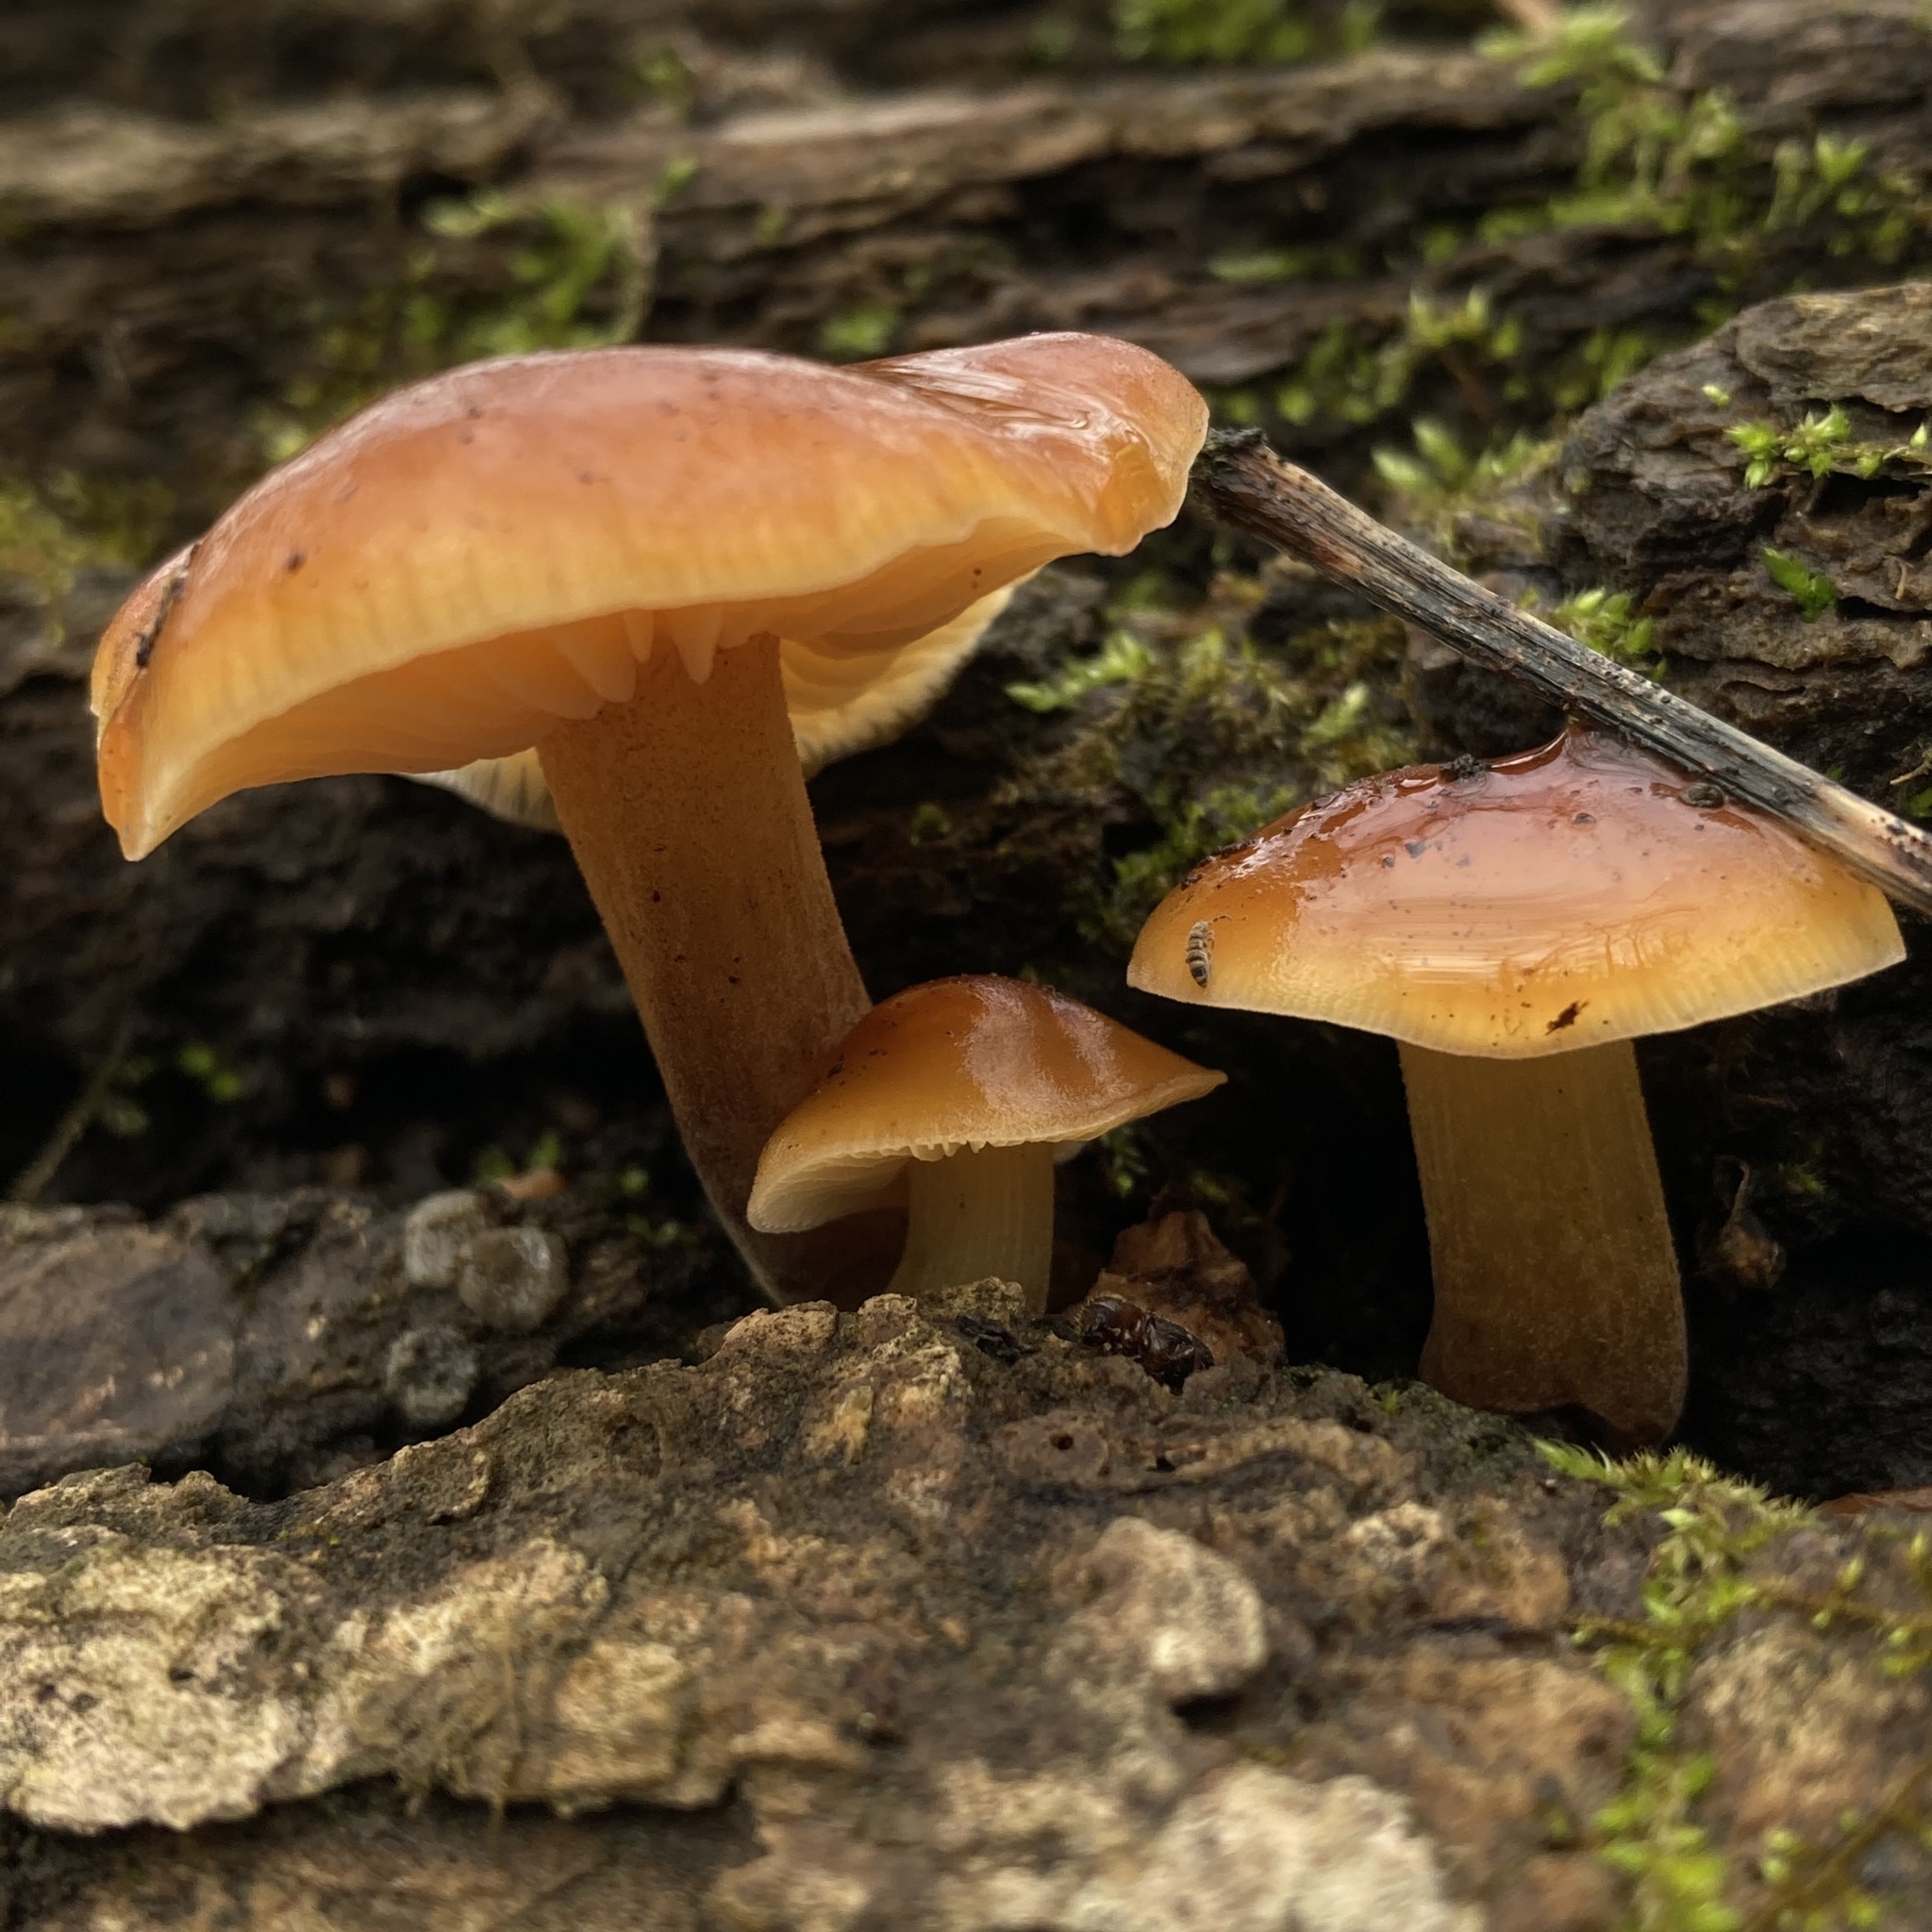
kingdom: Fungi
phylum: Basidiomycota
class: Agaricomycetes
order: Agaricales
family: Physalacriaceae
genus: Flammulina
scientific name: Flammulina velutipes
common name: Velvet shank
